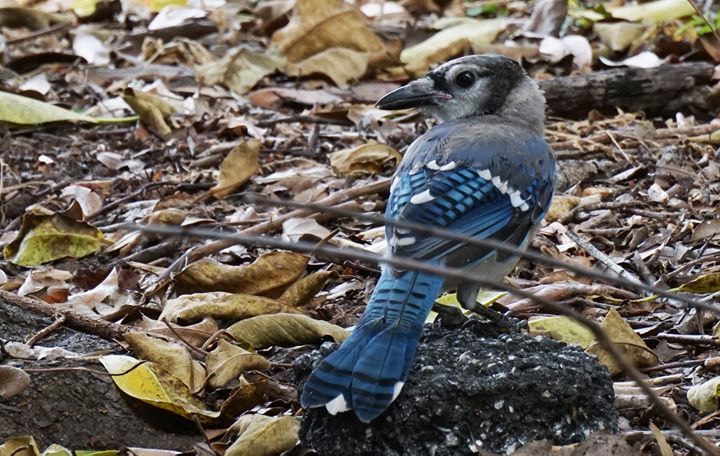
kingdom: Animalia
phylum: Chordata
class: Aves
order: Passeriformes
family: Corvidae
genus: Cyanocitta
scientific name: Cyanocitta cristata
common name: Blue jay
